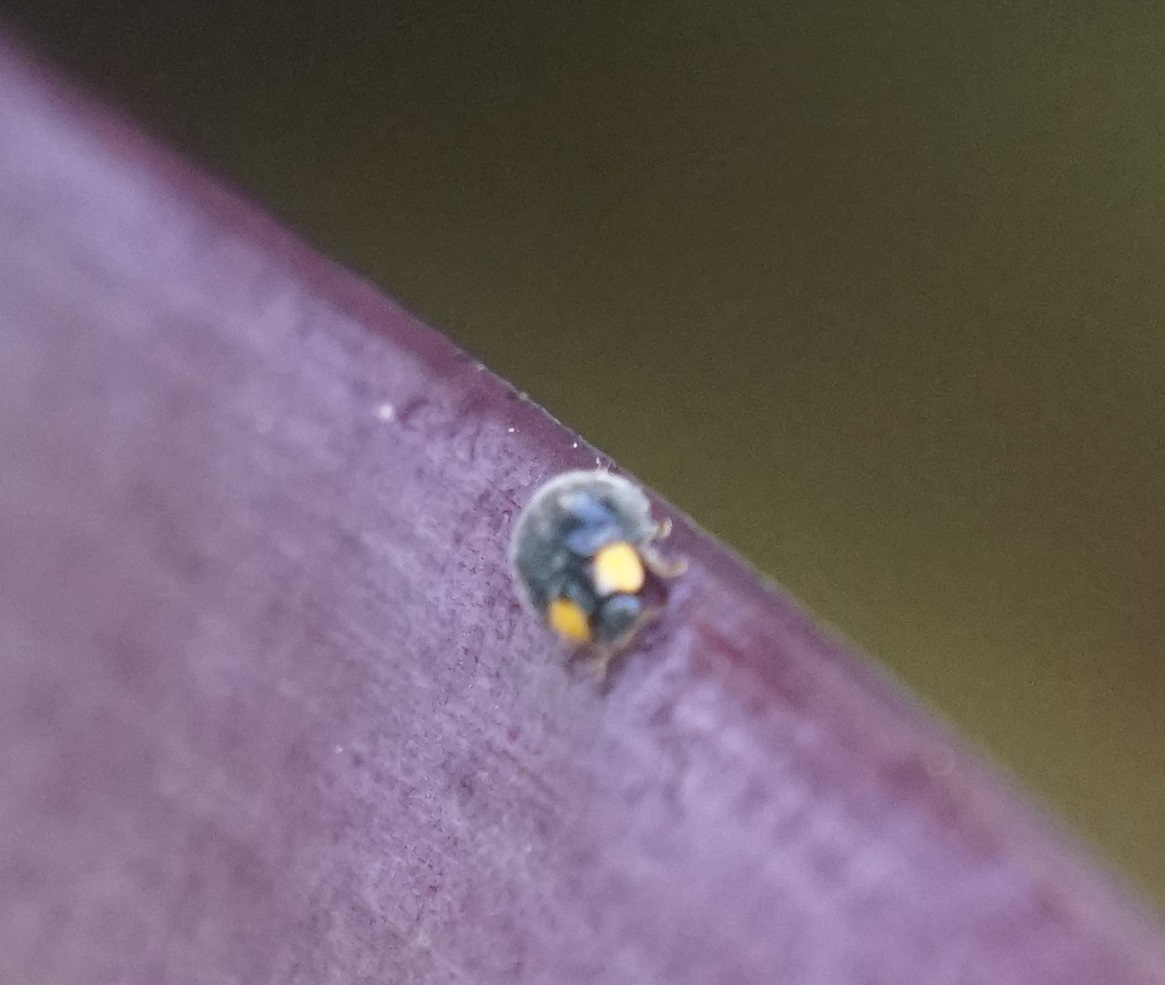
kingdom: Animalia
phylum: Arthropoda
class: Insecta
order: Coleoptera
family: Coccinellidae
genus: Scymnodes
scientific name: Scymnodes lividigaster
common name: Yellowshouldered lady beetle
